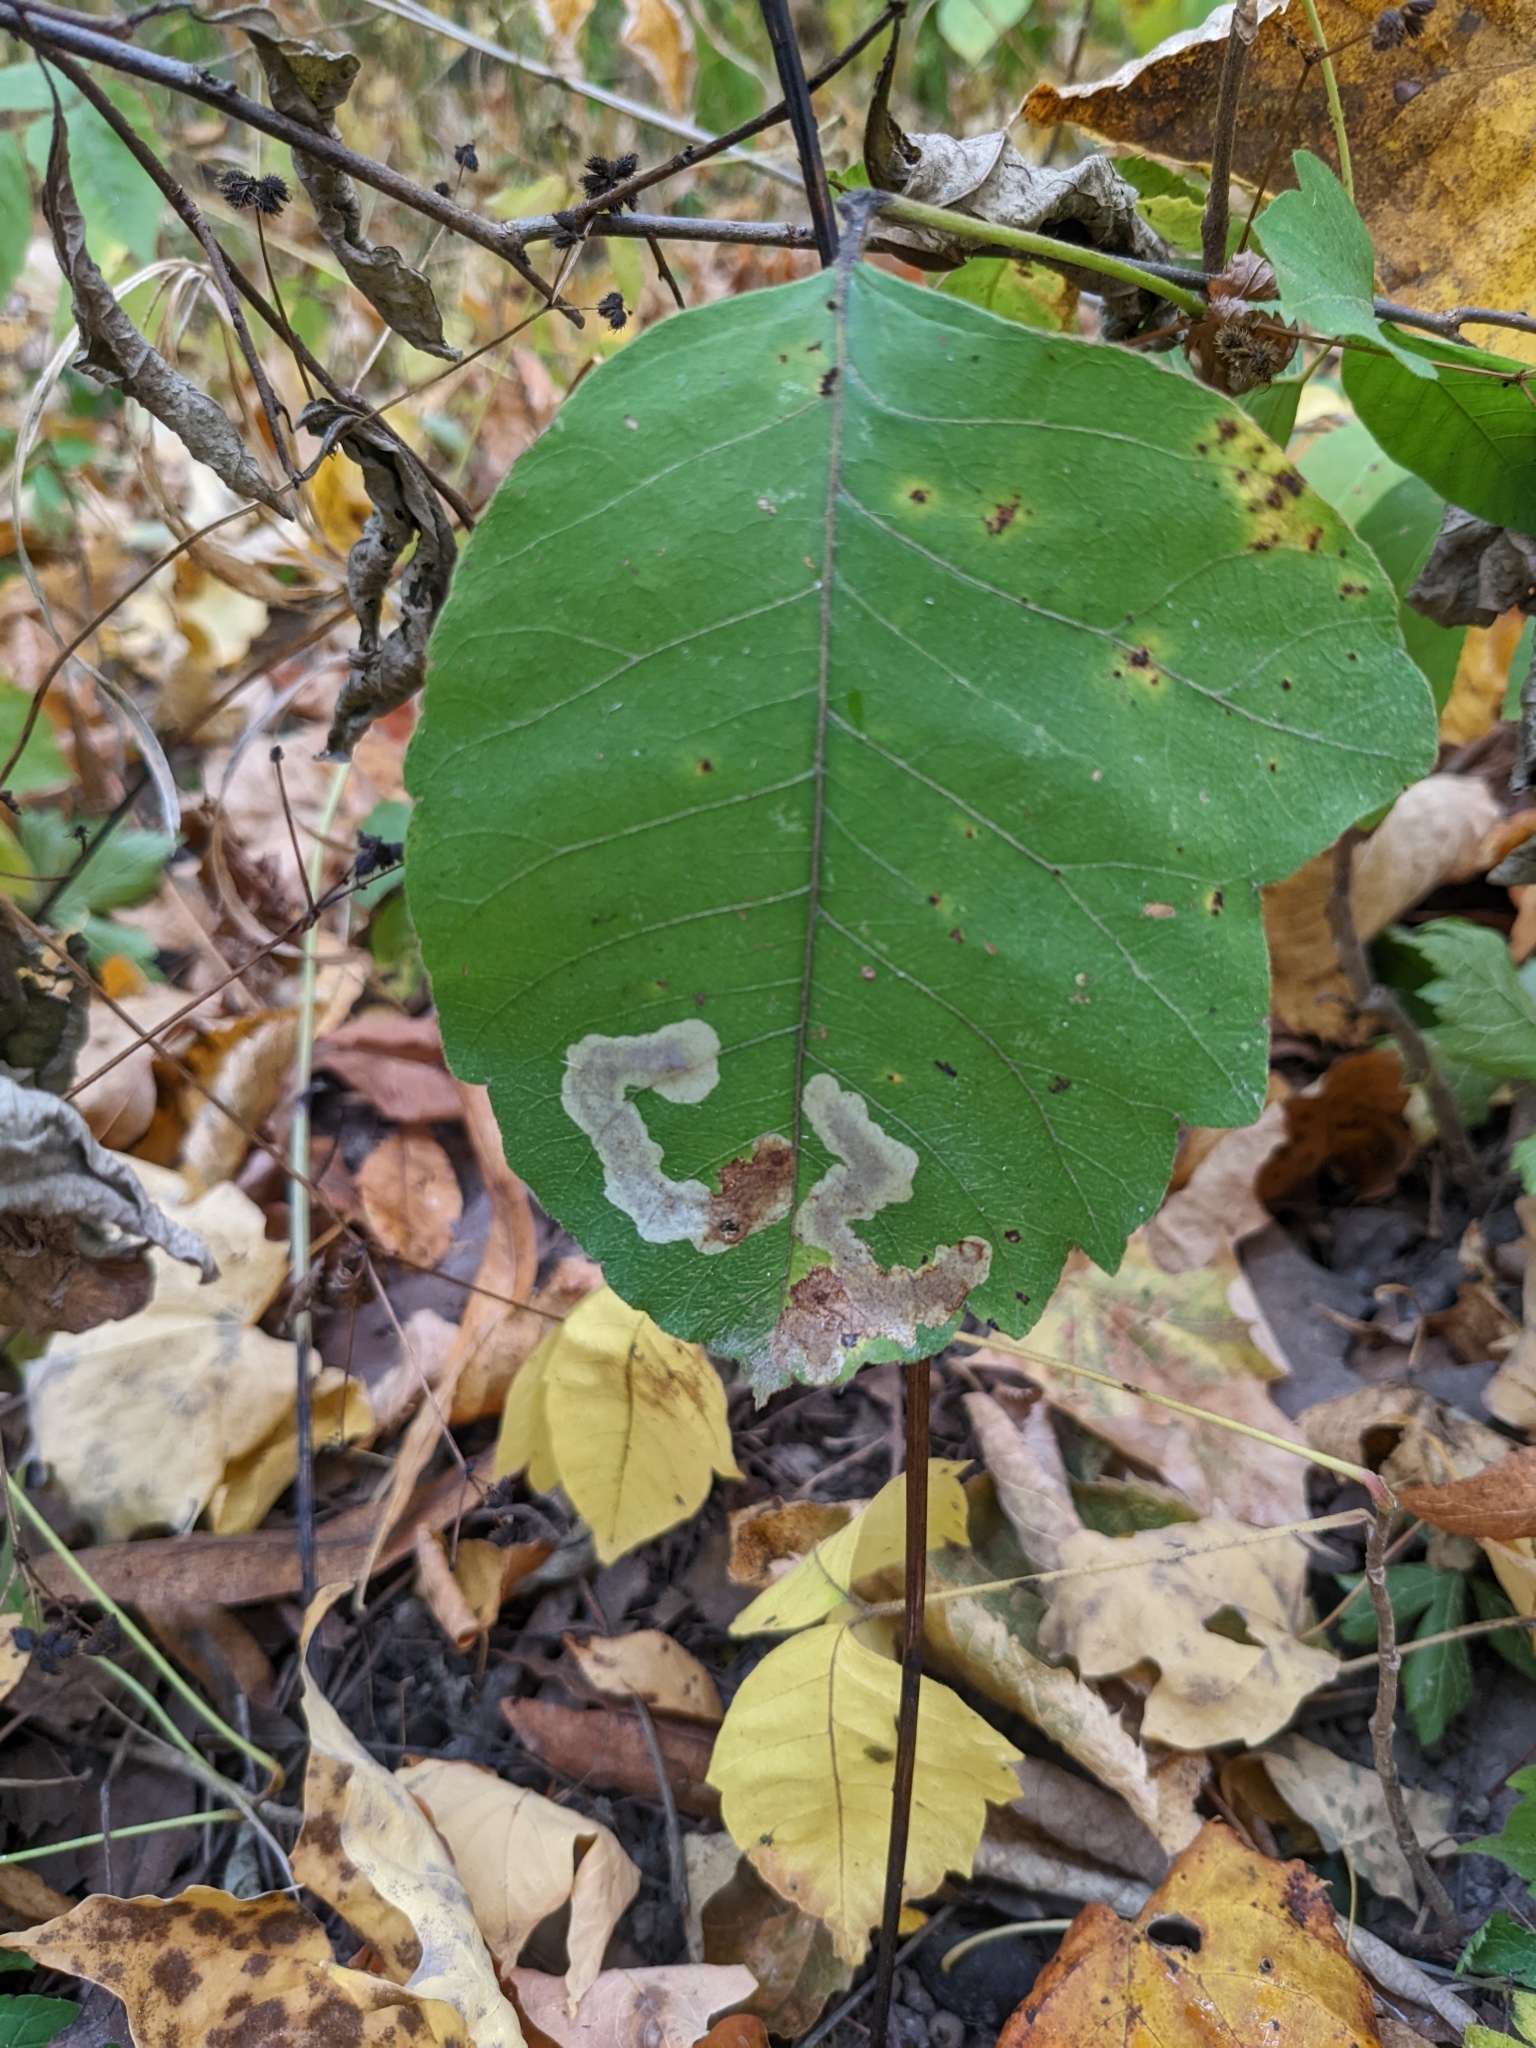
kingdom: Animalia
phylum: Arthropoda
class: Insecta
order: Lepidoptera
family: Gracillariidae
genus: Cameraria
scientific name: Cameraria guttifinitella
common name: Poison ivy leaf-miner moth
